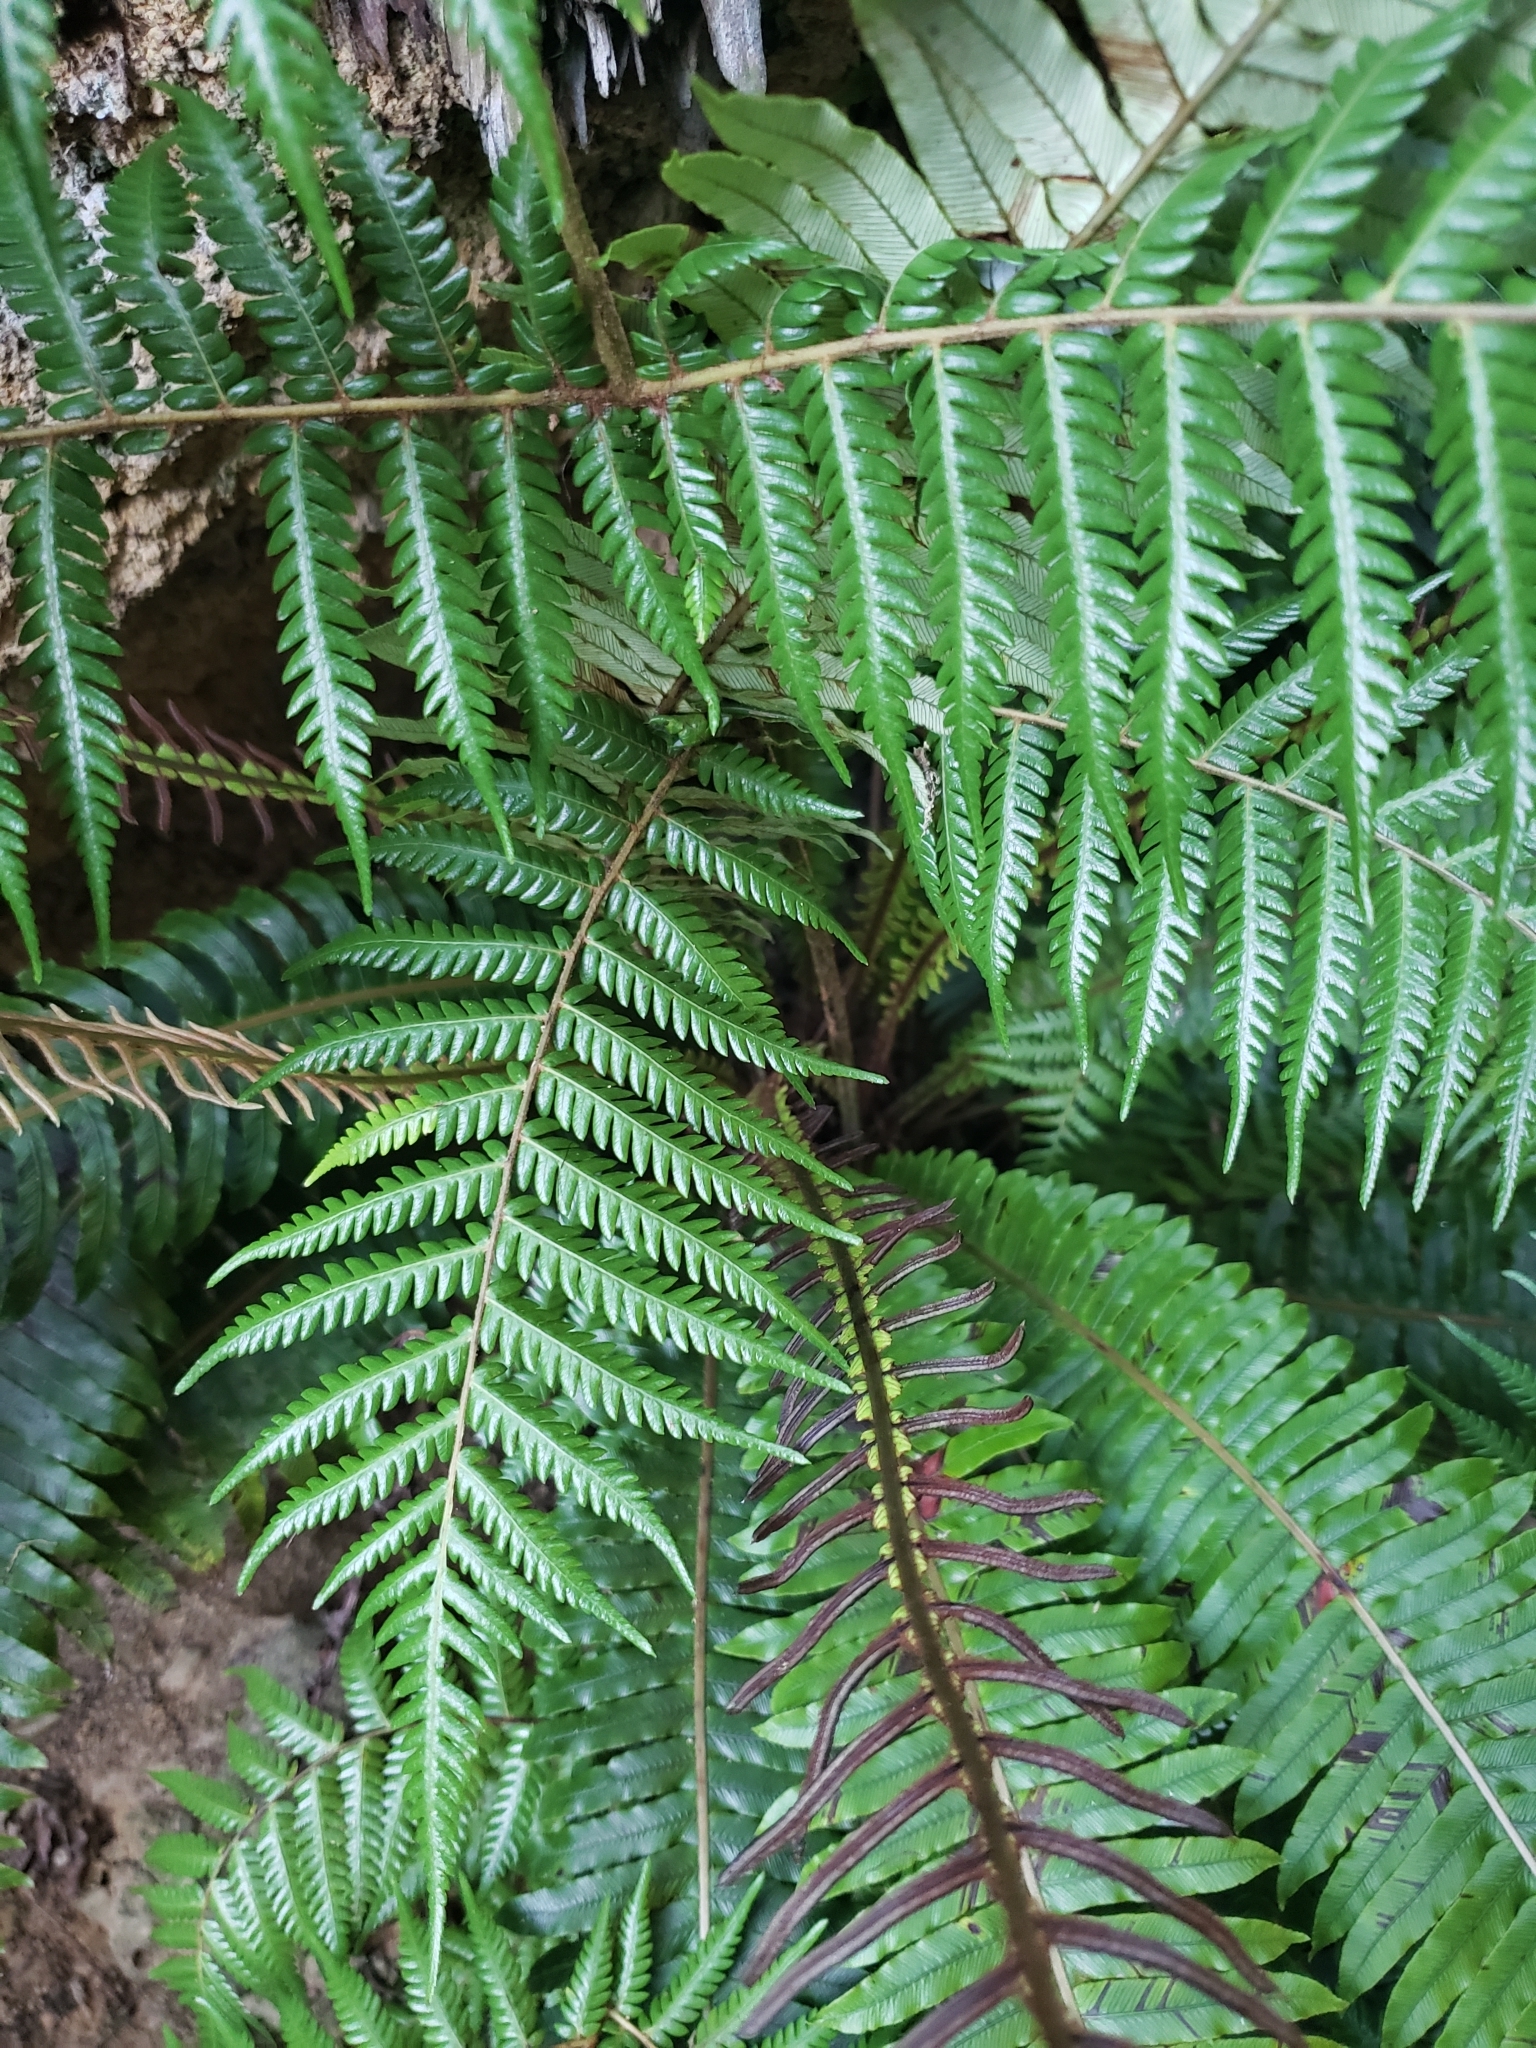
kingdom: Plantae
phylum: Tracheophyta
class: Polypodiopsida
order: Cyatheales
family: Cyatheaceae
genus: Alsophila
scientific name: Alsophila dealbata
